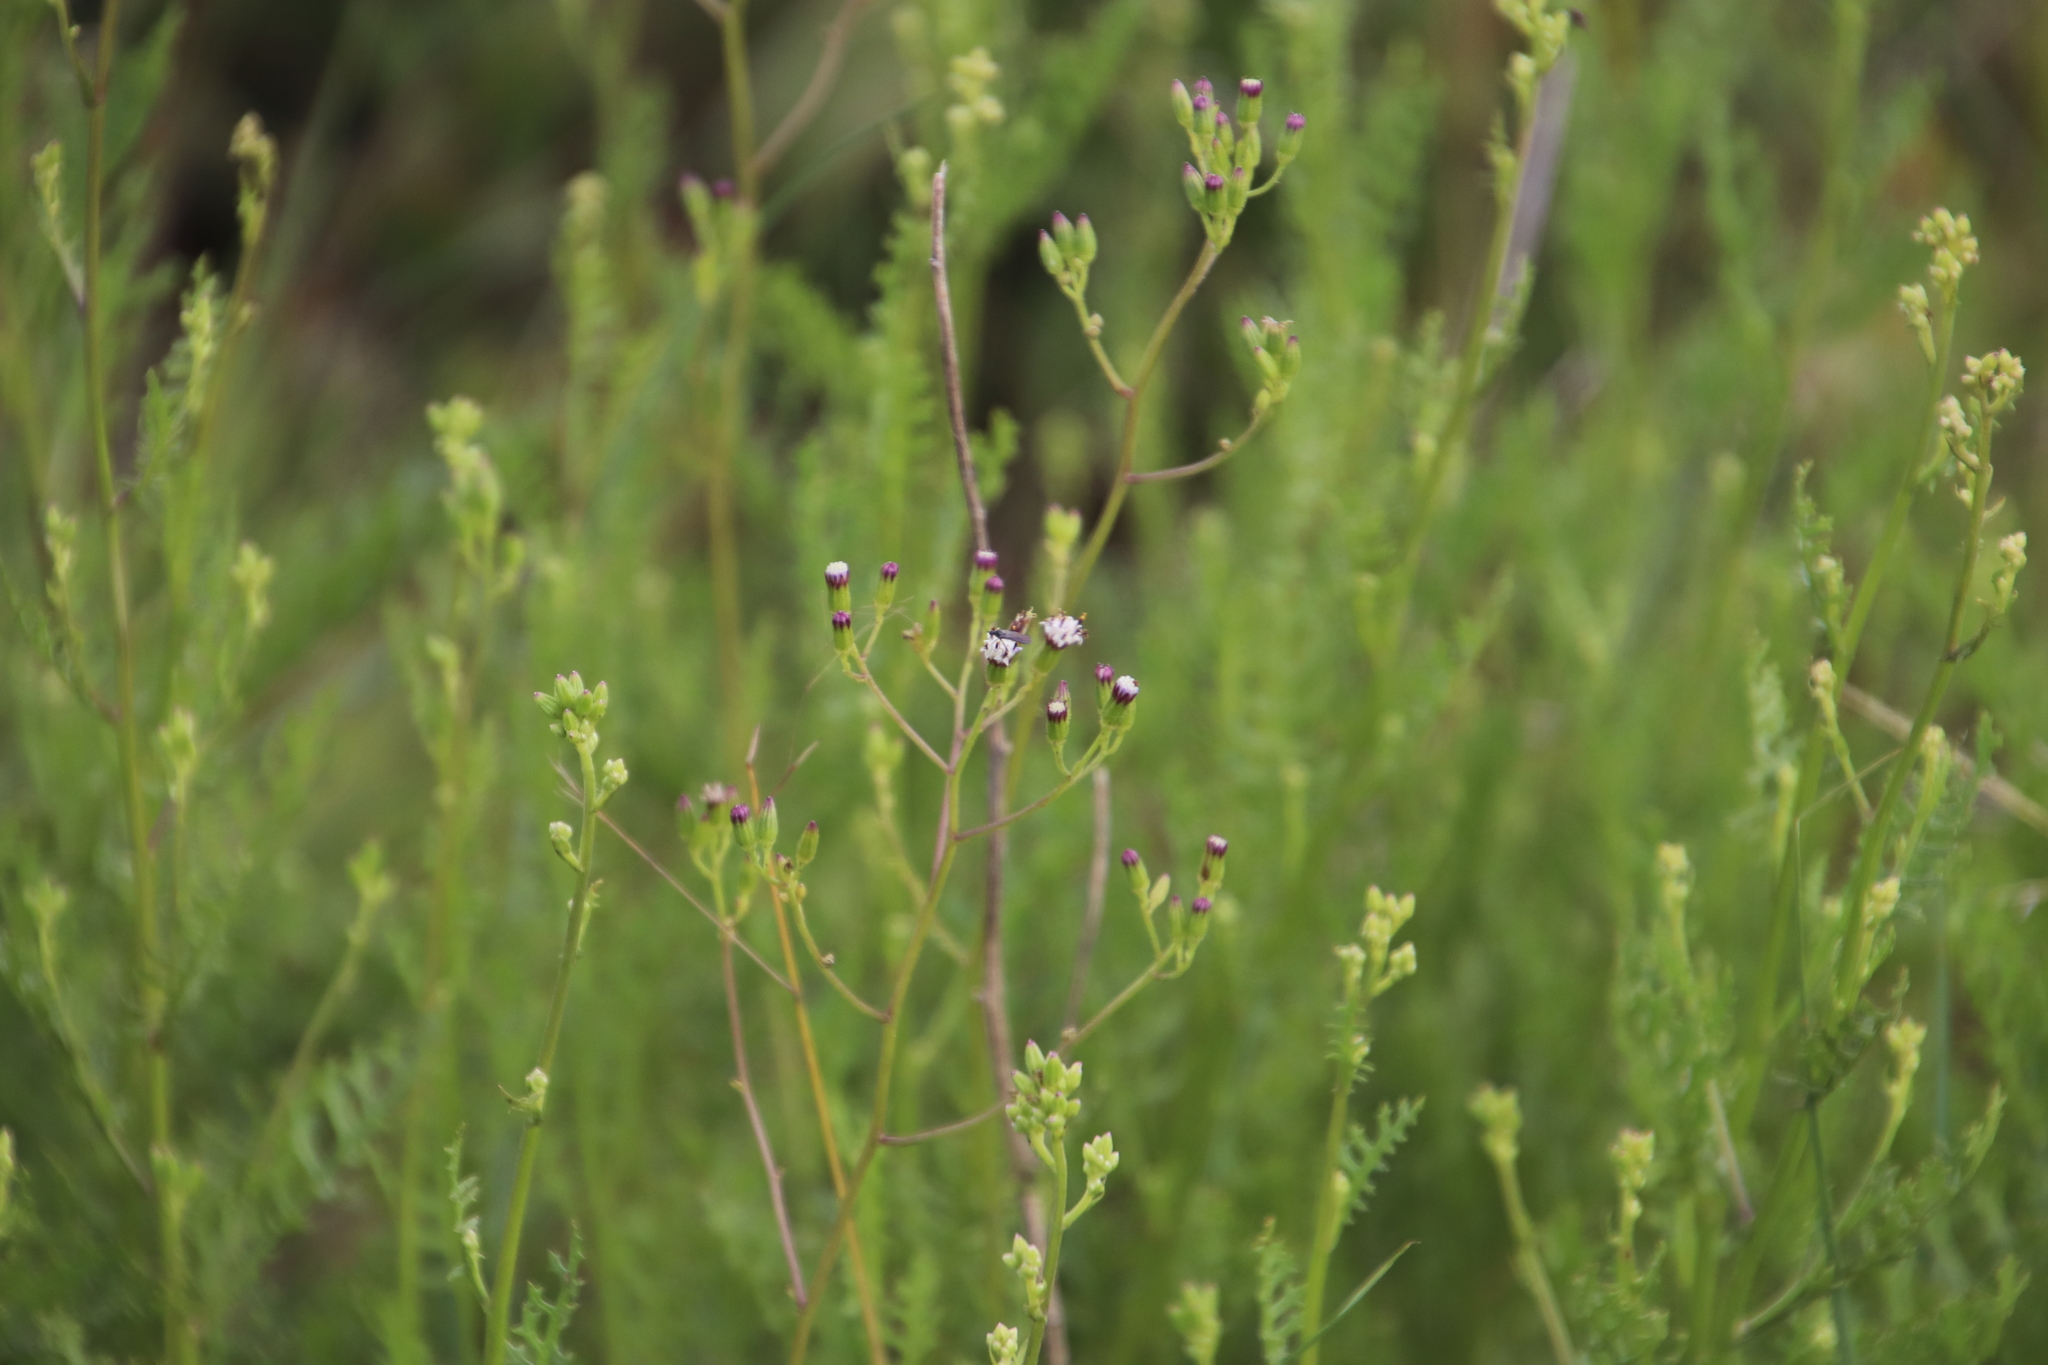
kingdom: Plantae
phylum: Tracheophyta
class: Magnoliopsida
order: Asterales
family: Asteraceae
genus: Senecio
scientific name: Senecio rhyncholaenus
